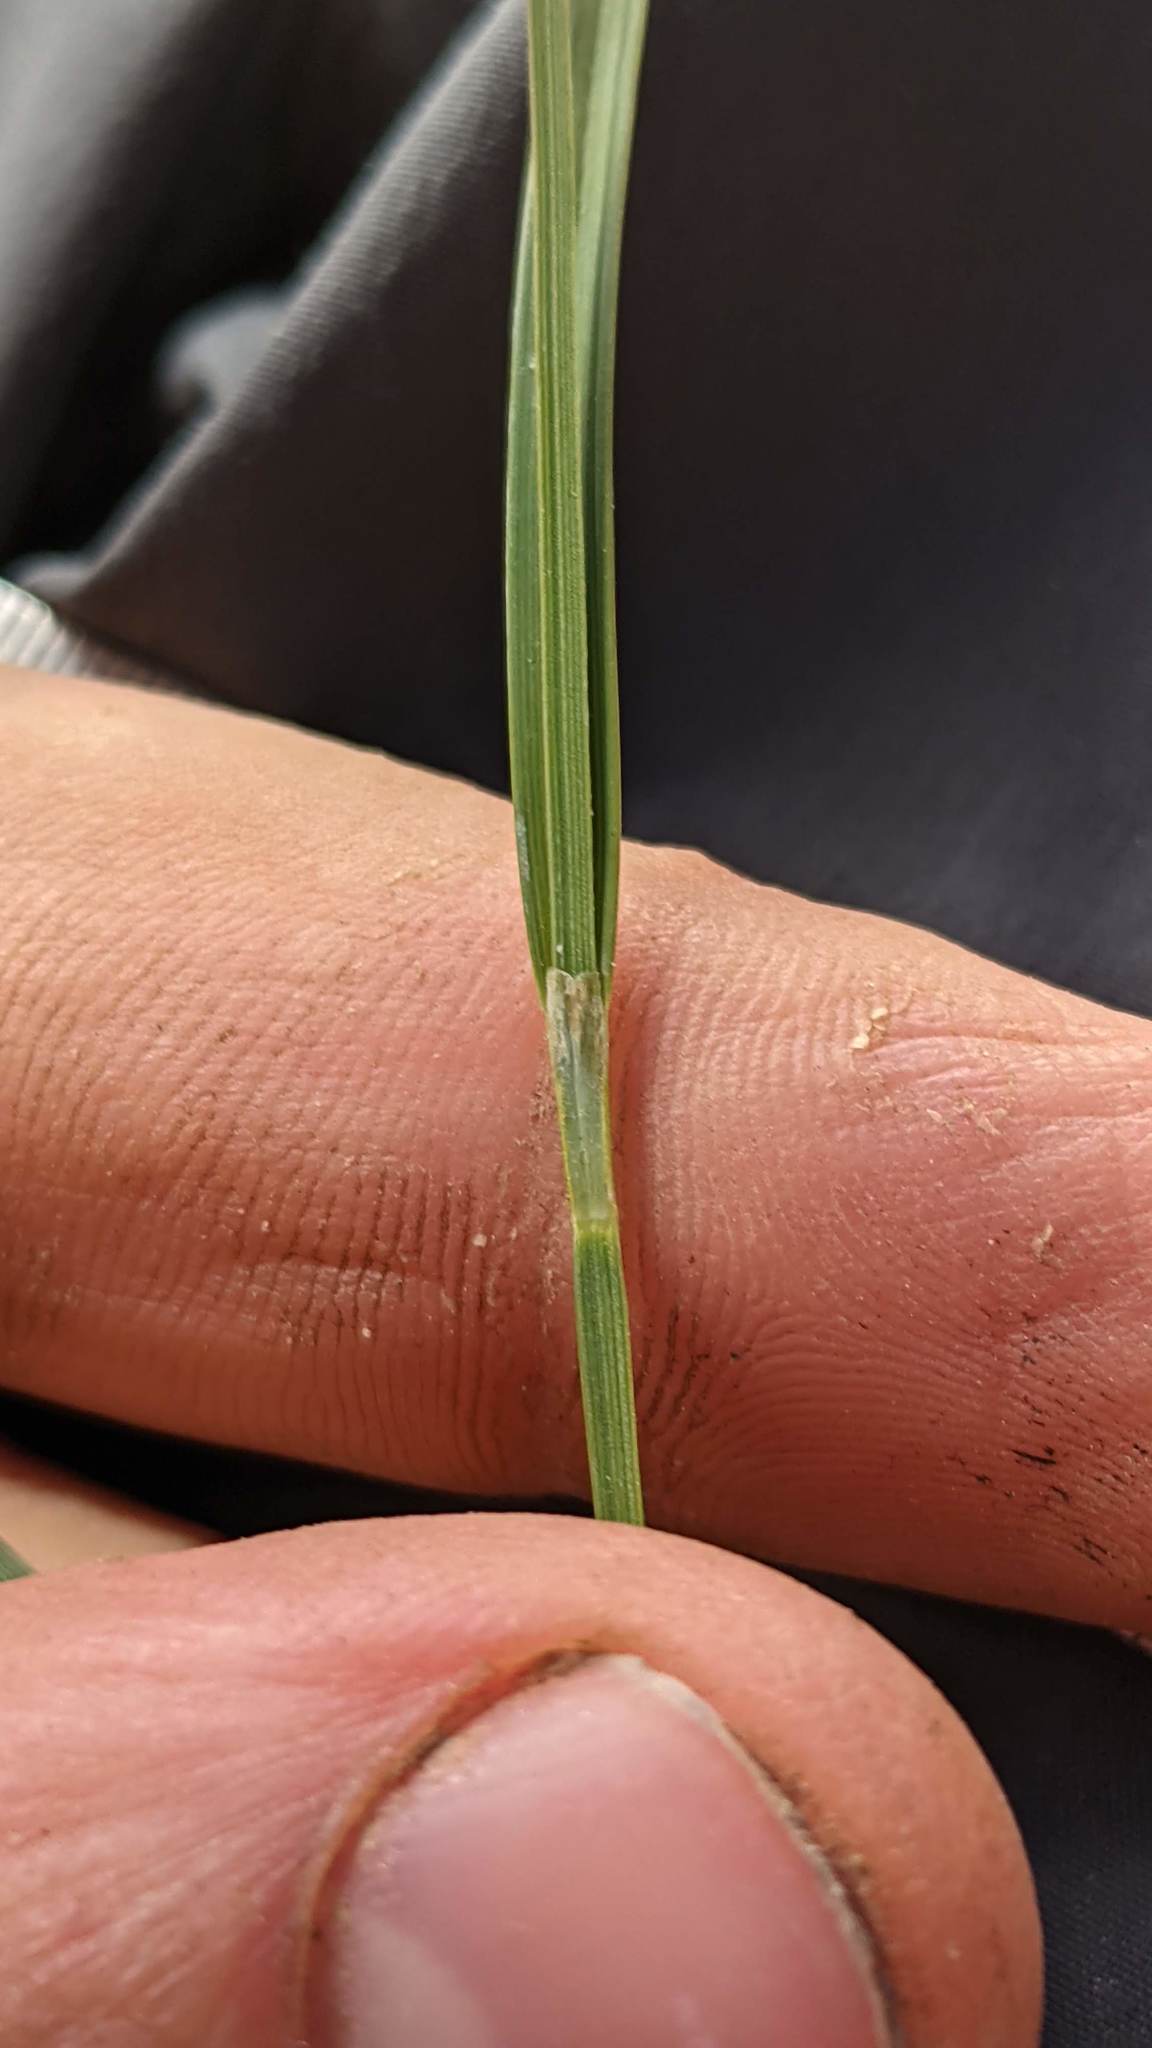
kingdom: Plantae
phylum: Tracheophyta
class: Liliopsida
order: Poales
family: Cyperaceae
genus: Carex
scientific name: Carex spectabilis
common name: Northwestern showy sedge
